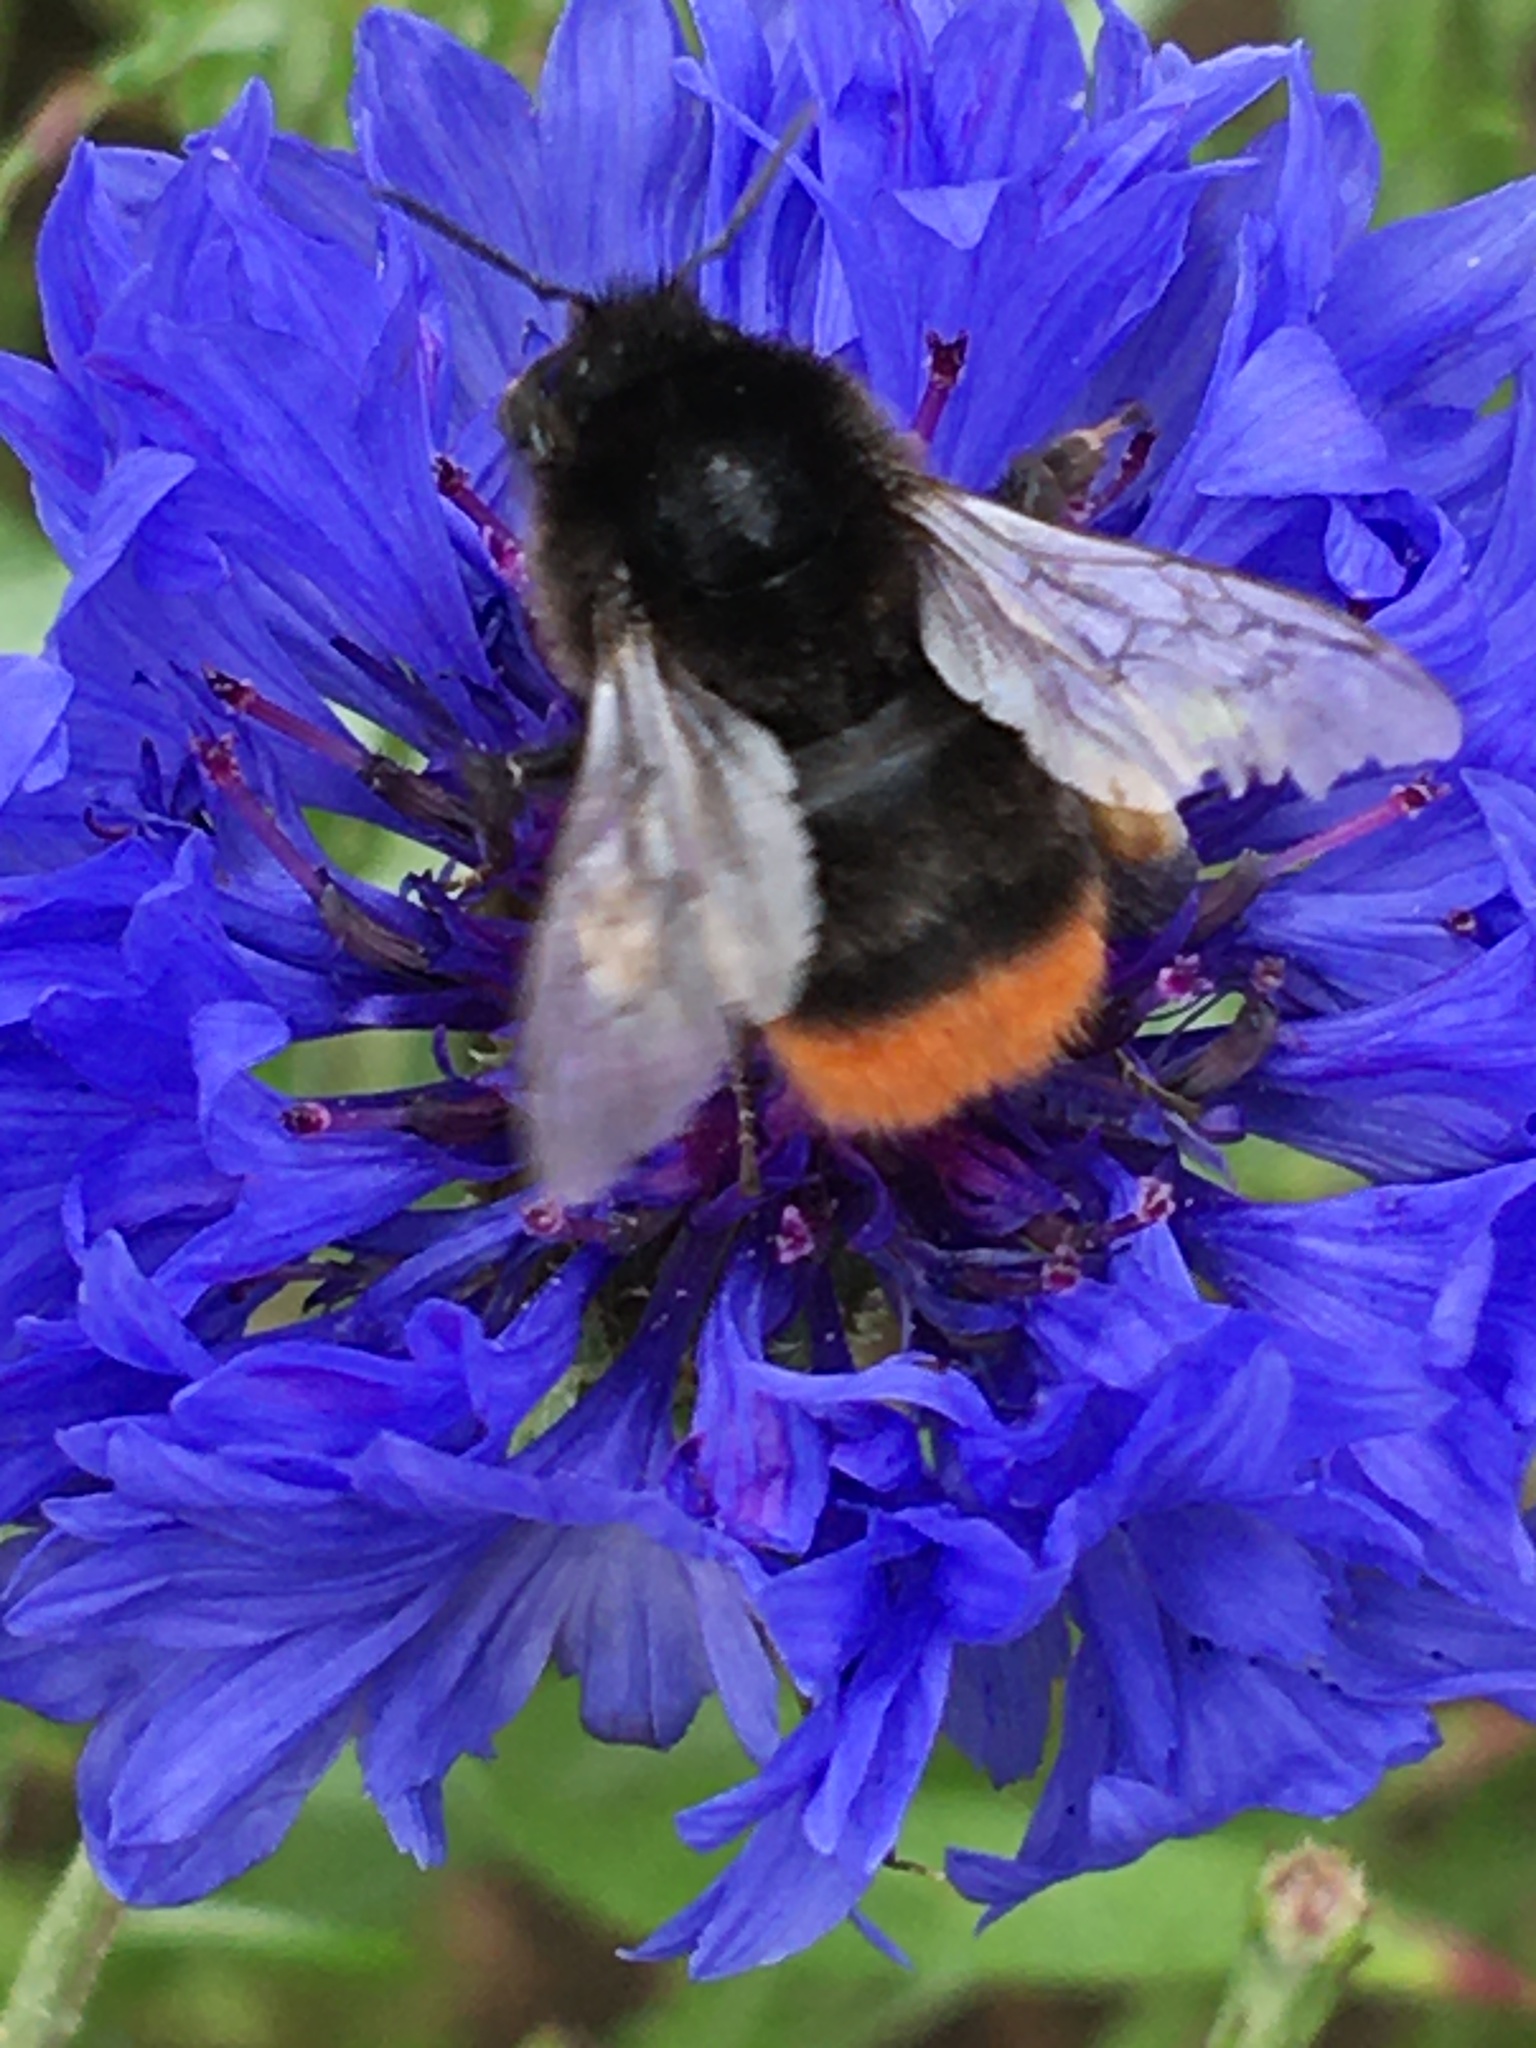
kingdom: Animalia
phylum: Arthropoda
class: Insecta
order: Hymenoptera
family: Apidae
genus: Bombus
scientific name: Bombus lapidarius
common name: Large red-tailed humble-bee
